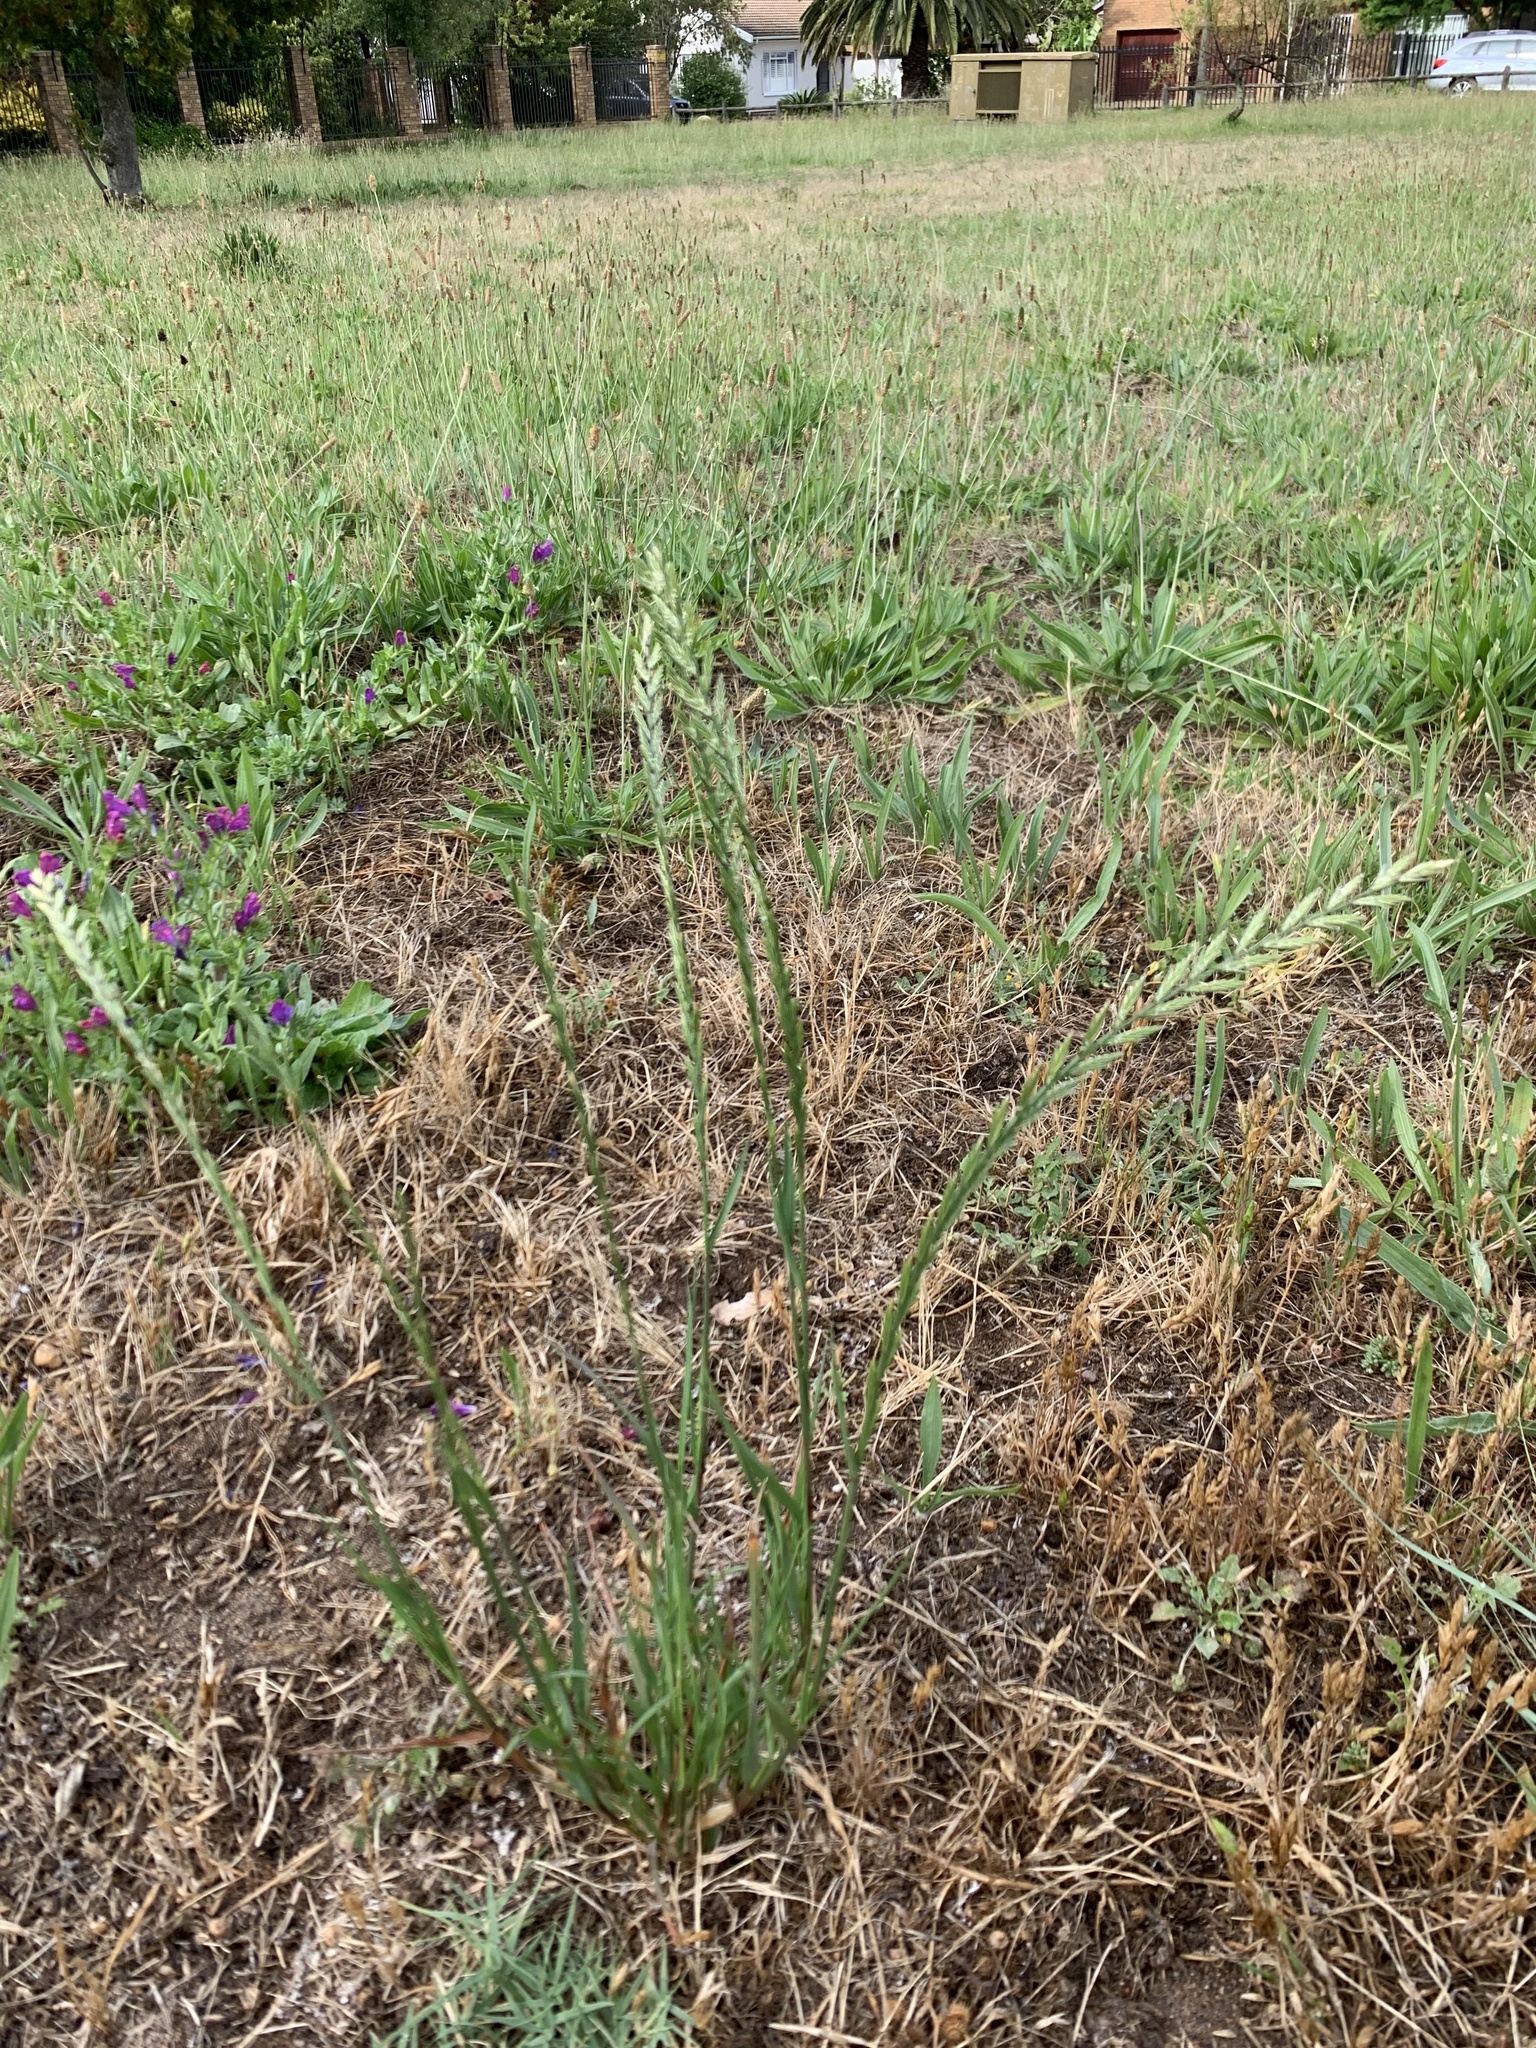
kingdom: Plantae
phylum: Tracheophyta
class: Liliopsida
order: Poales
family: Poaceae
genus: Lolium
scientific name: Lolium multiflorum
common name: Annual ryegrass
